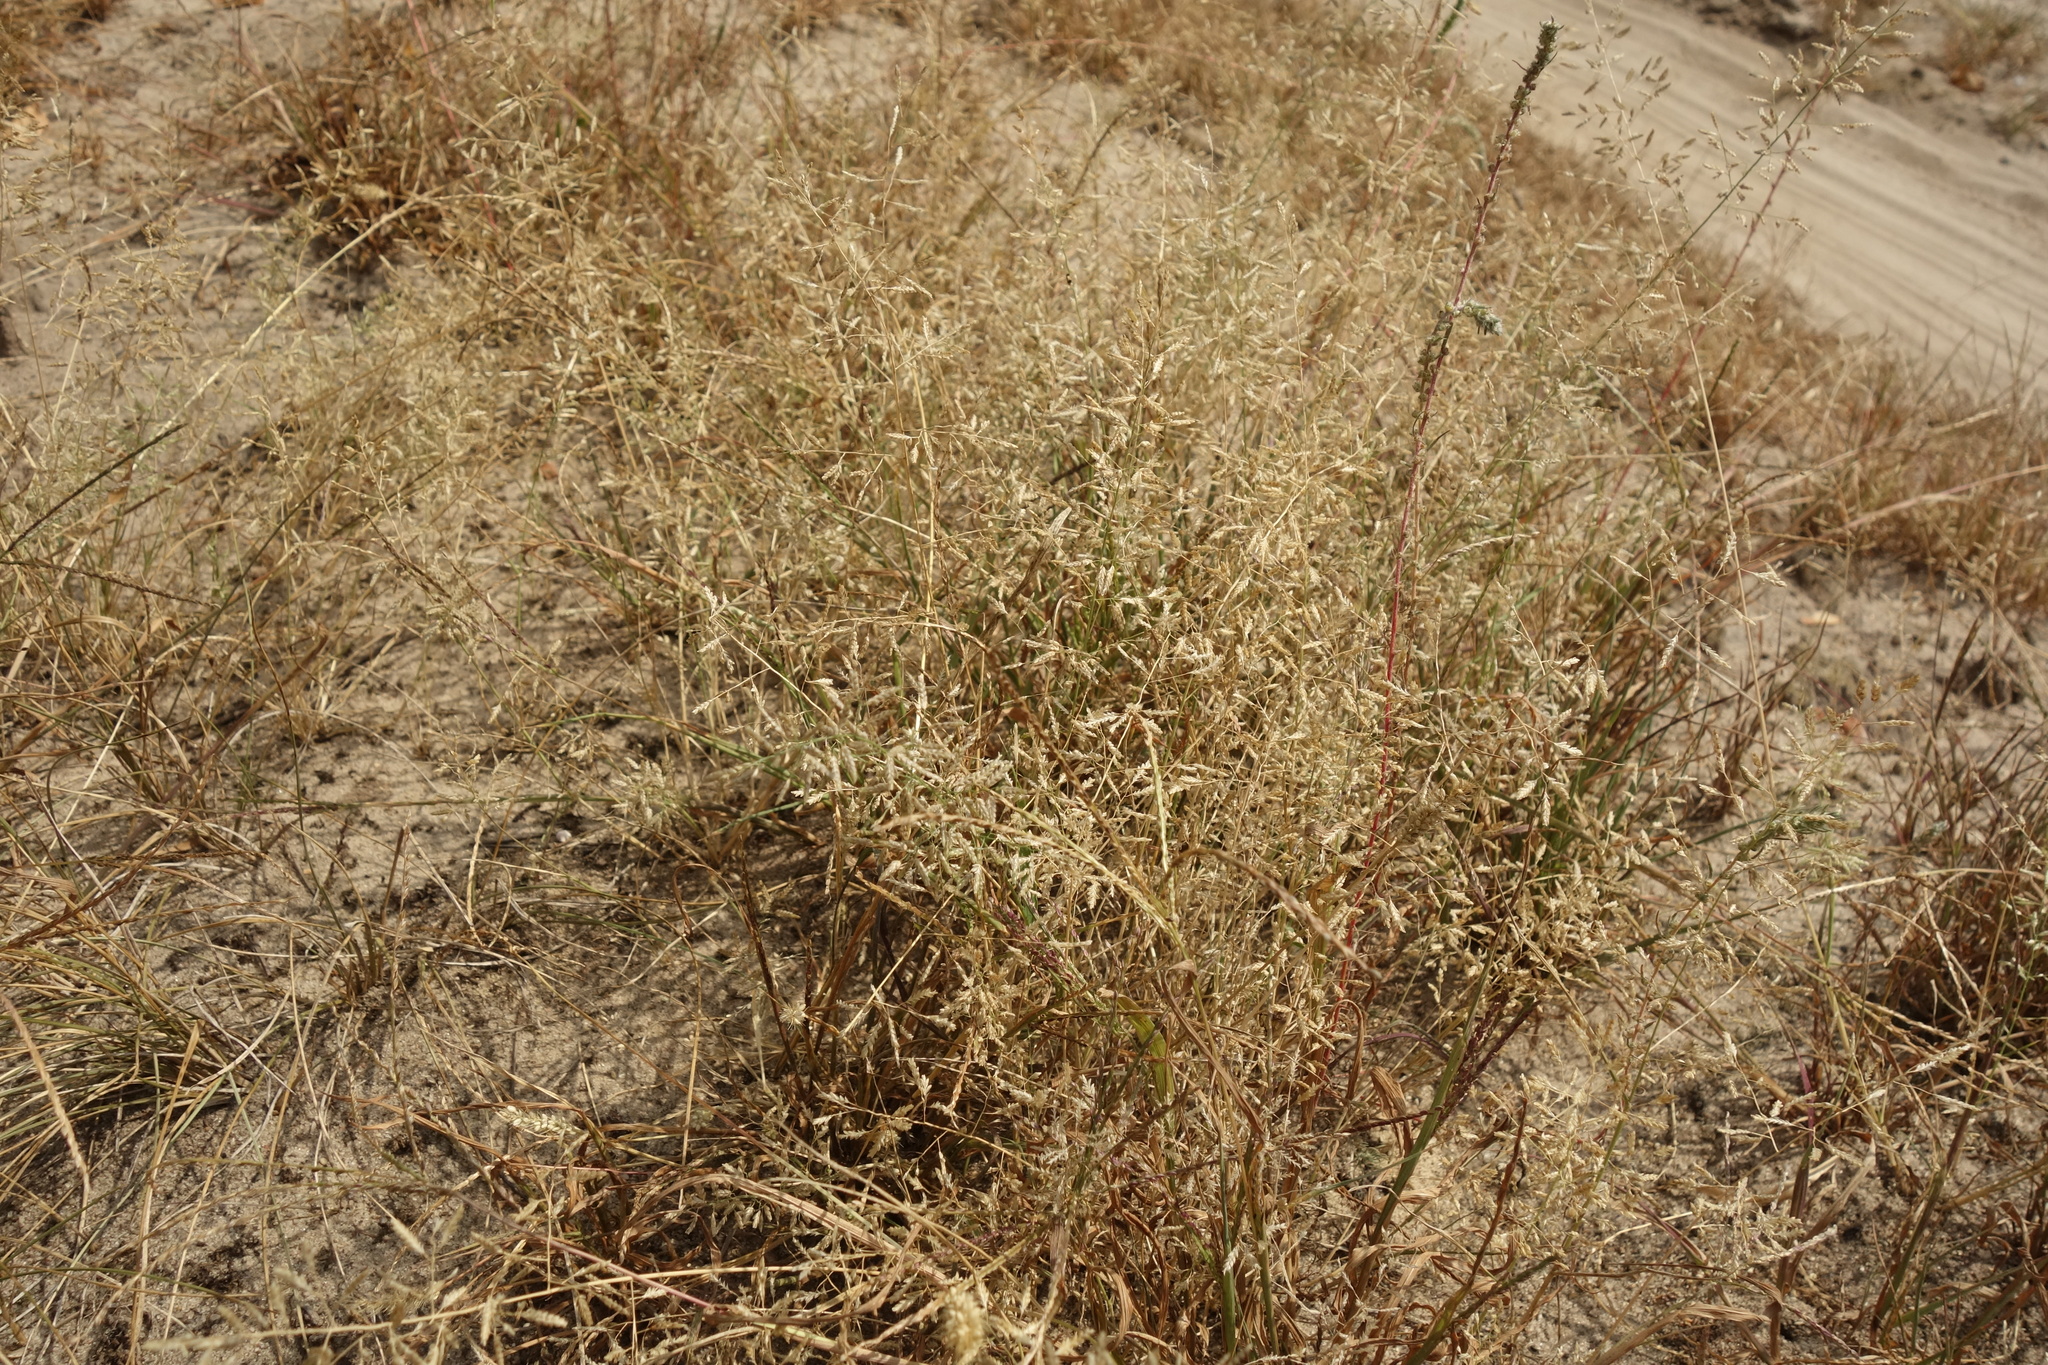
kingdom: Plantae
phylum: Tracheophyta
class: Liliopsida
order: Poales
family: Poaceae
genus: Eragrostis
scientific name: Eragrostis minor
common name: Small love-grass
